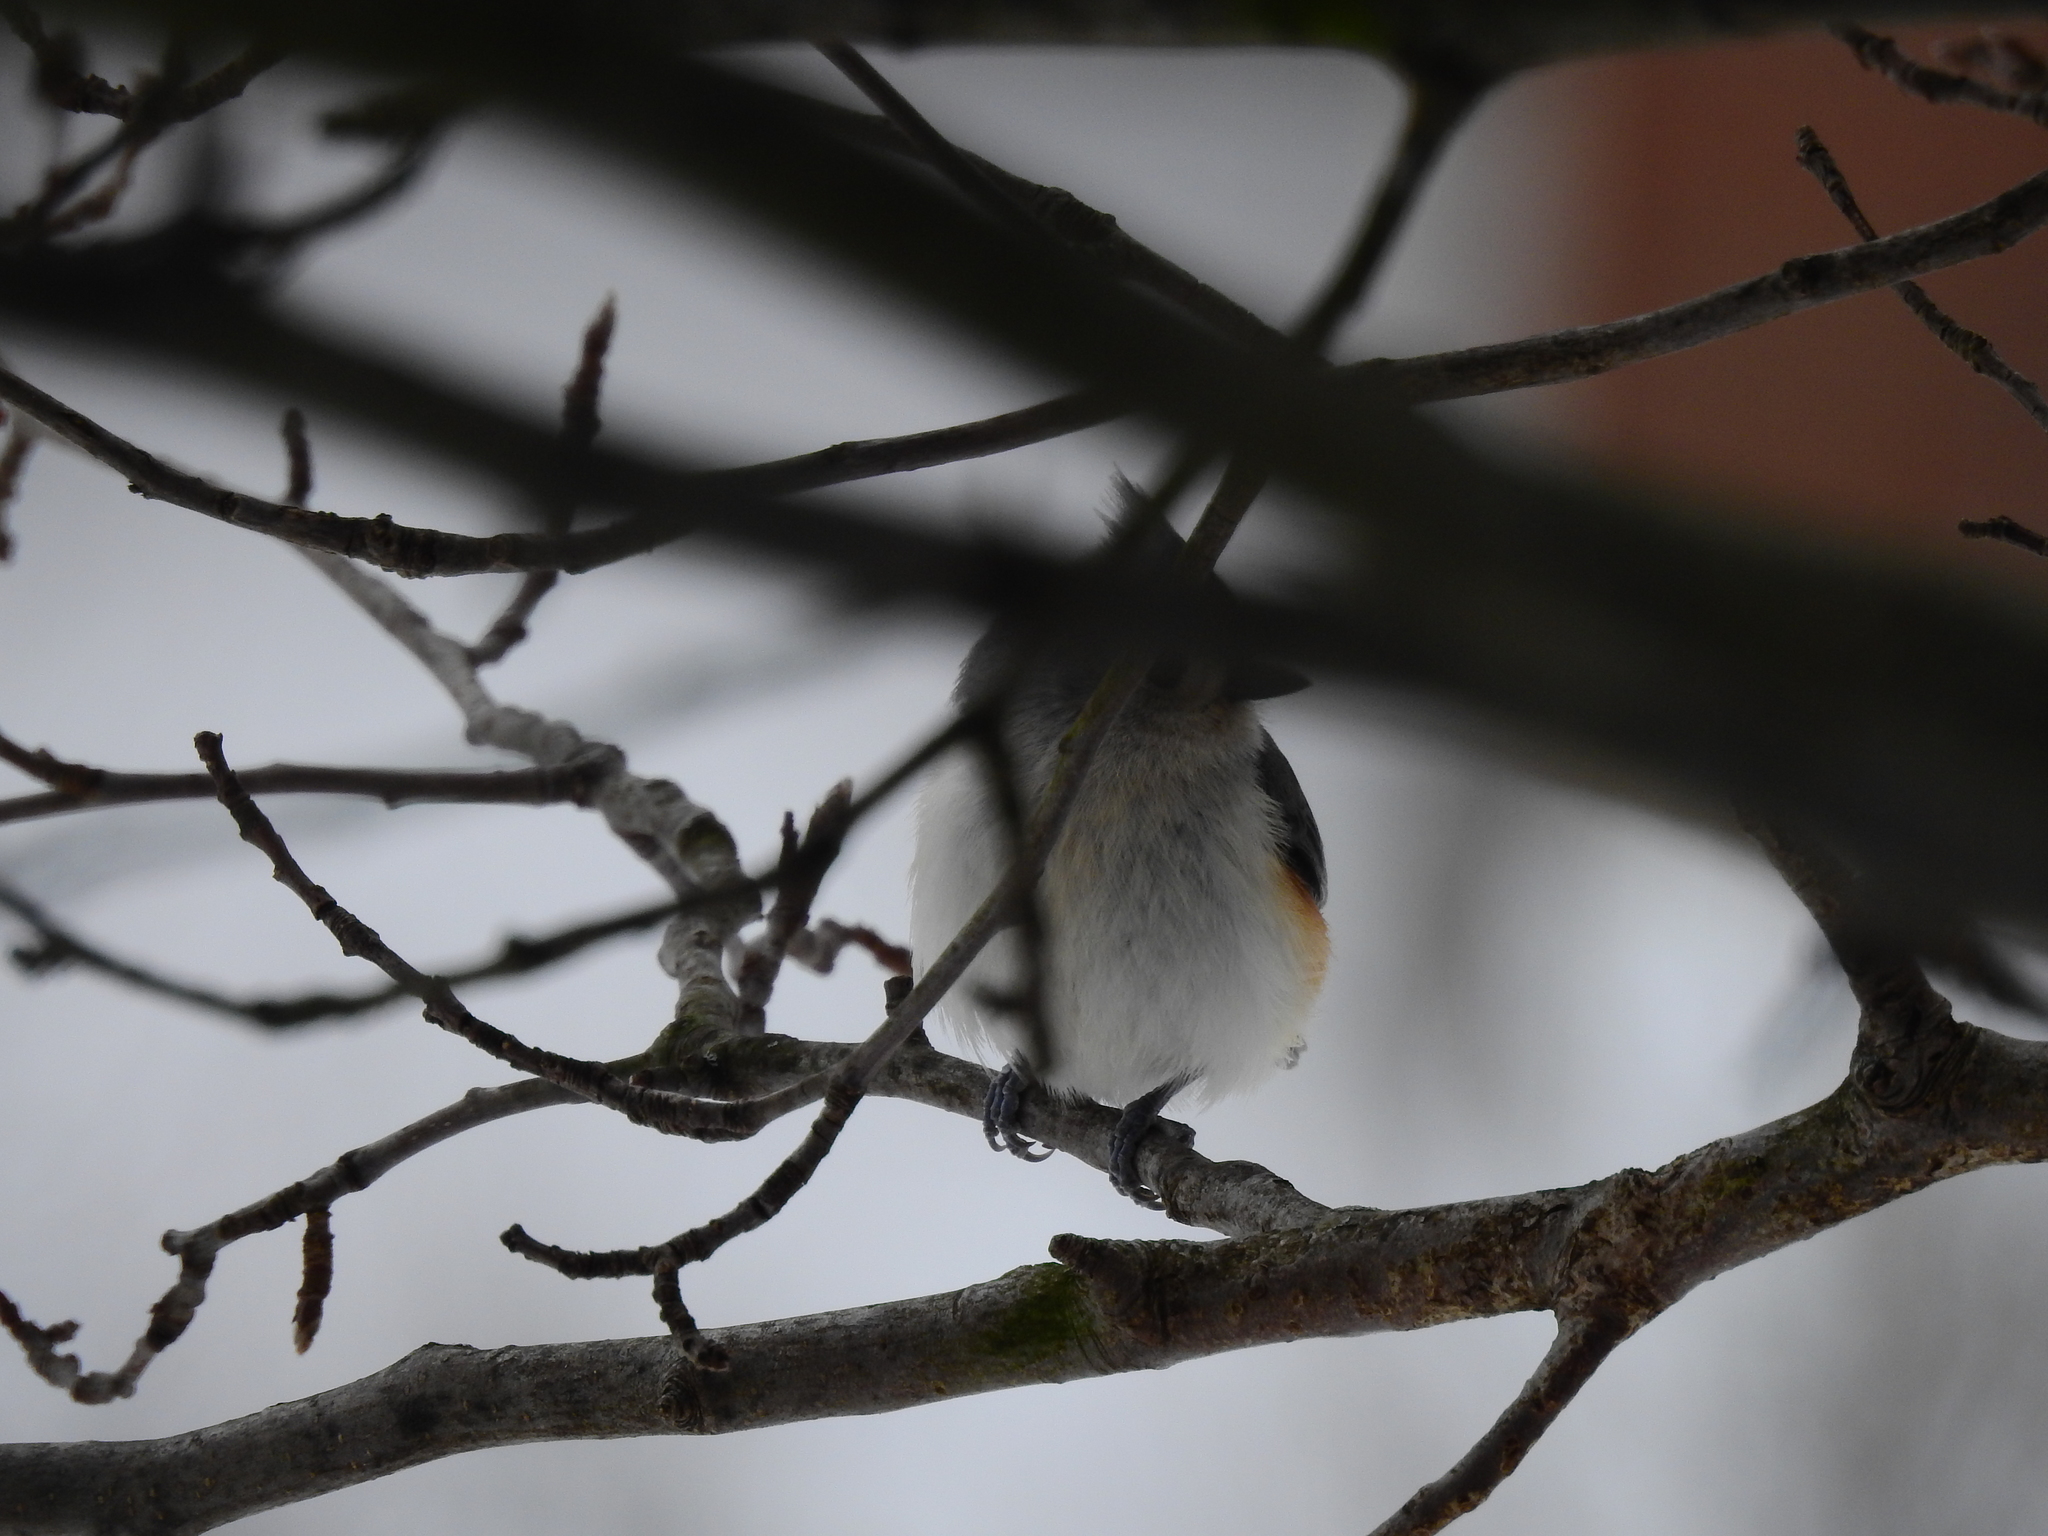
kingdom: Animalia
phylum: Chordata
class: Aves
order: Passeriformes
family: Paridae
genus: Baeolophus
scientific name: Baeolophus bicolor
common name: Tufted titmouse
